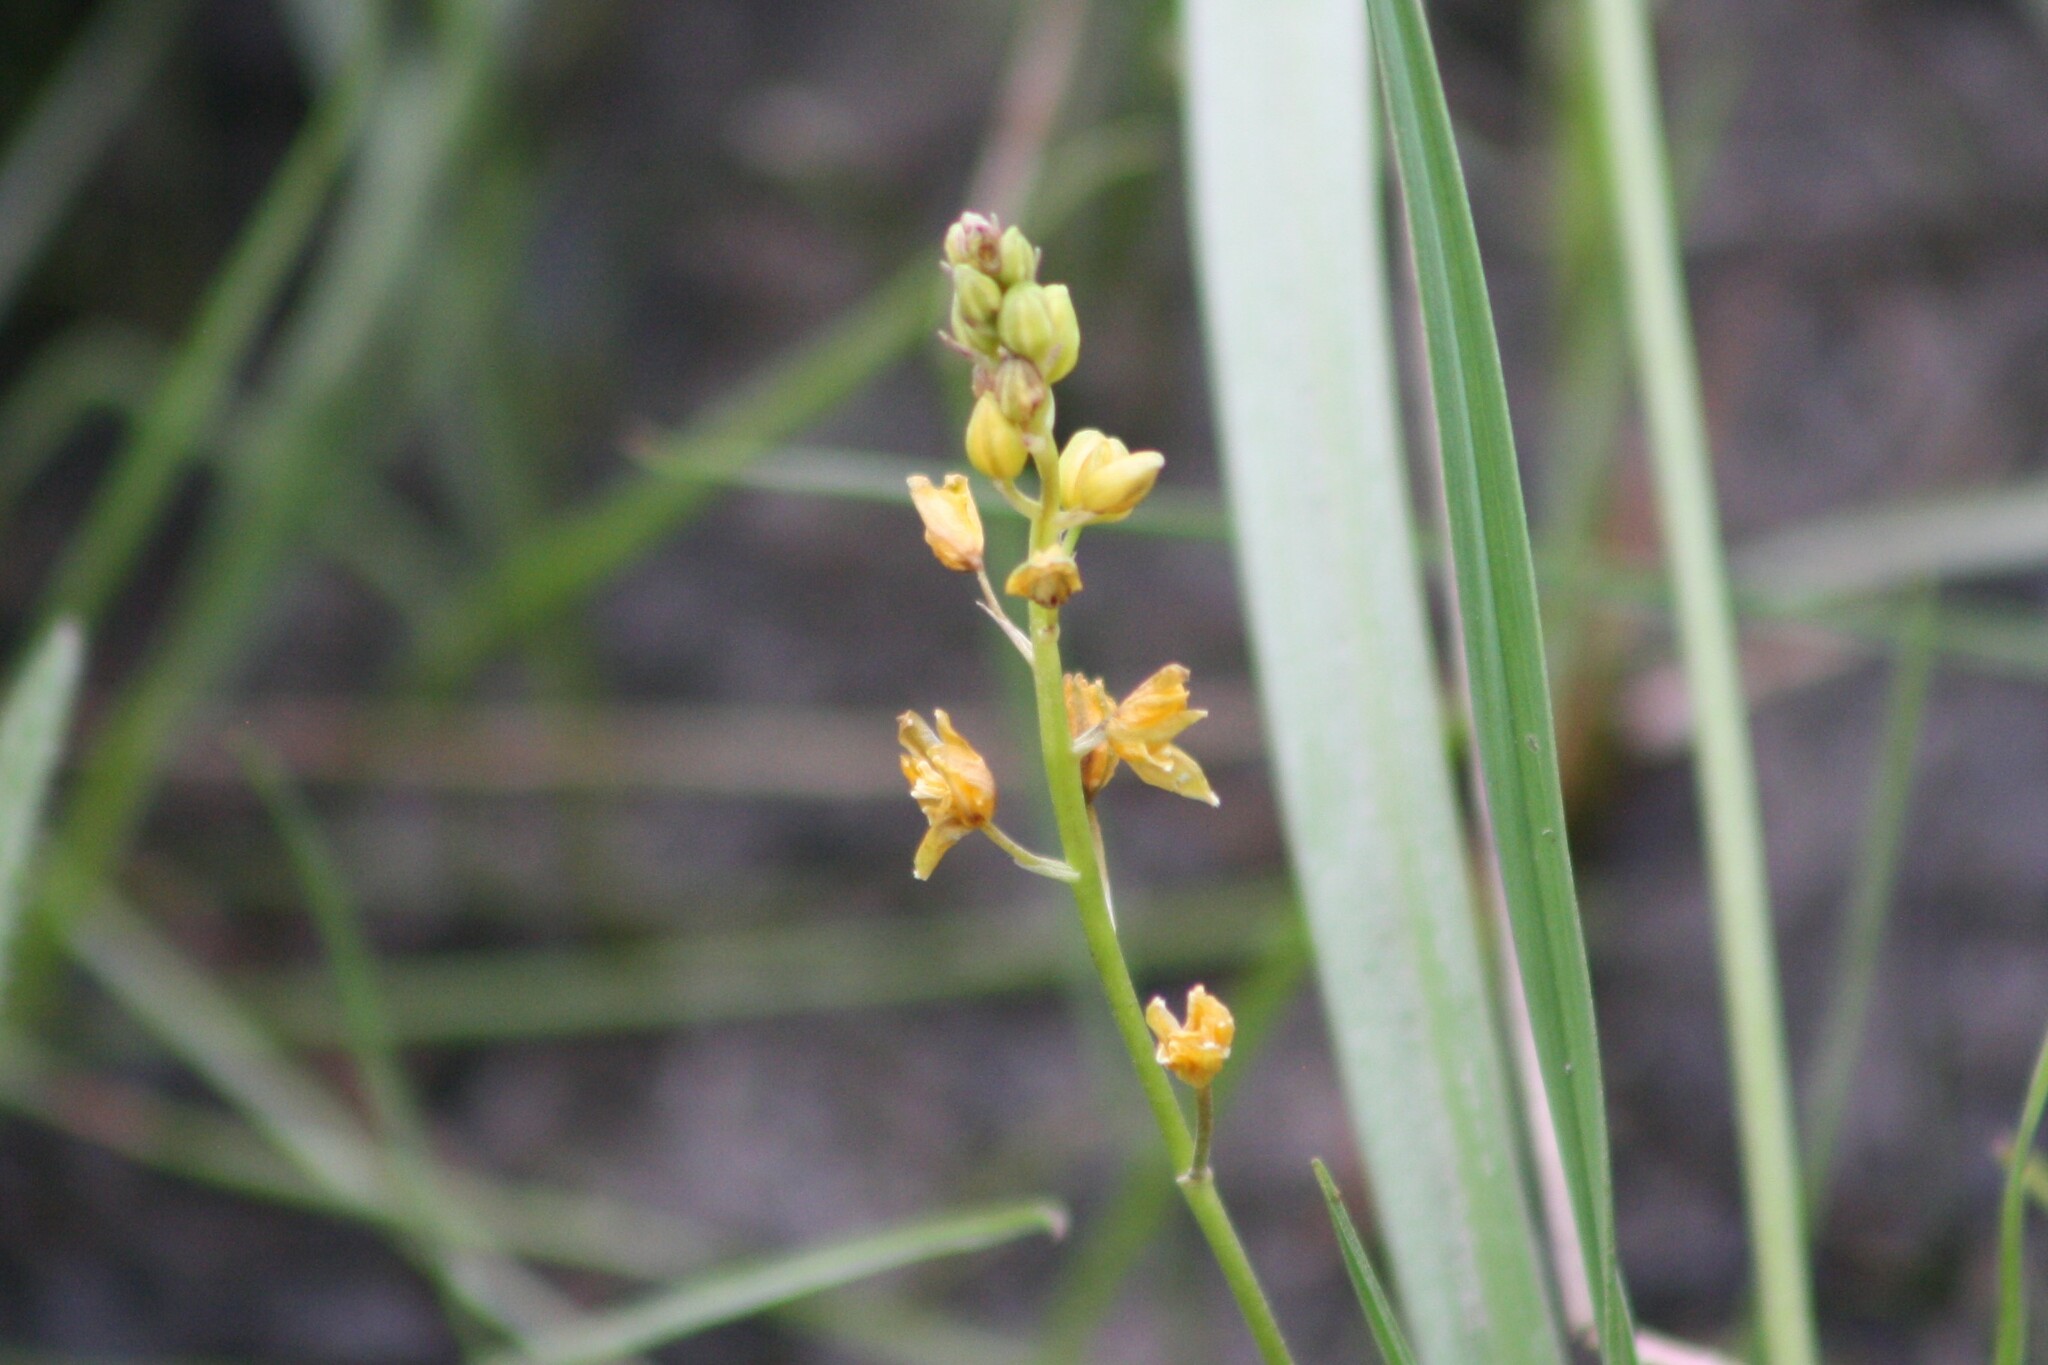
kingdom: Plantae
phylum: Tracheophyta
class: Liliopsida
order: Asparagales
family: Asparagaceae
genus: Schoenolirion
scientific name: Schoenolirion croceum
